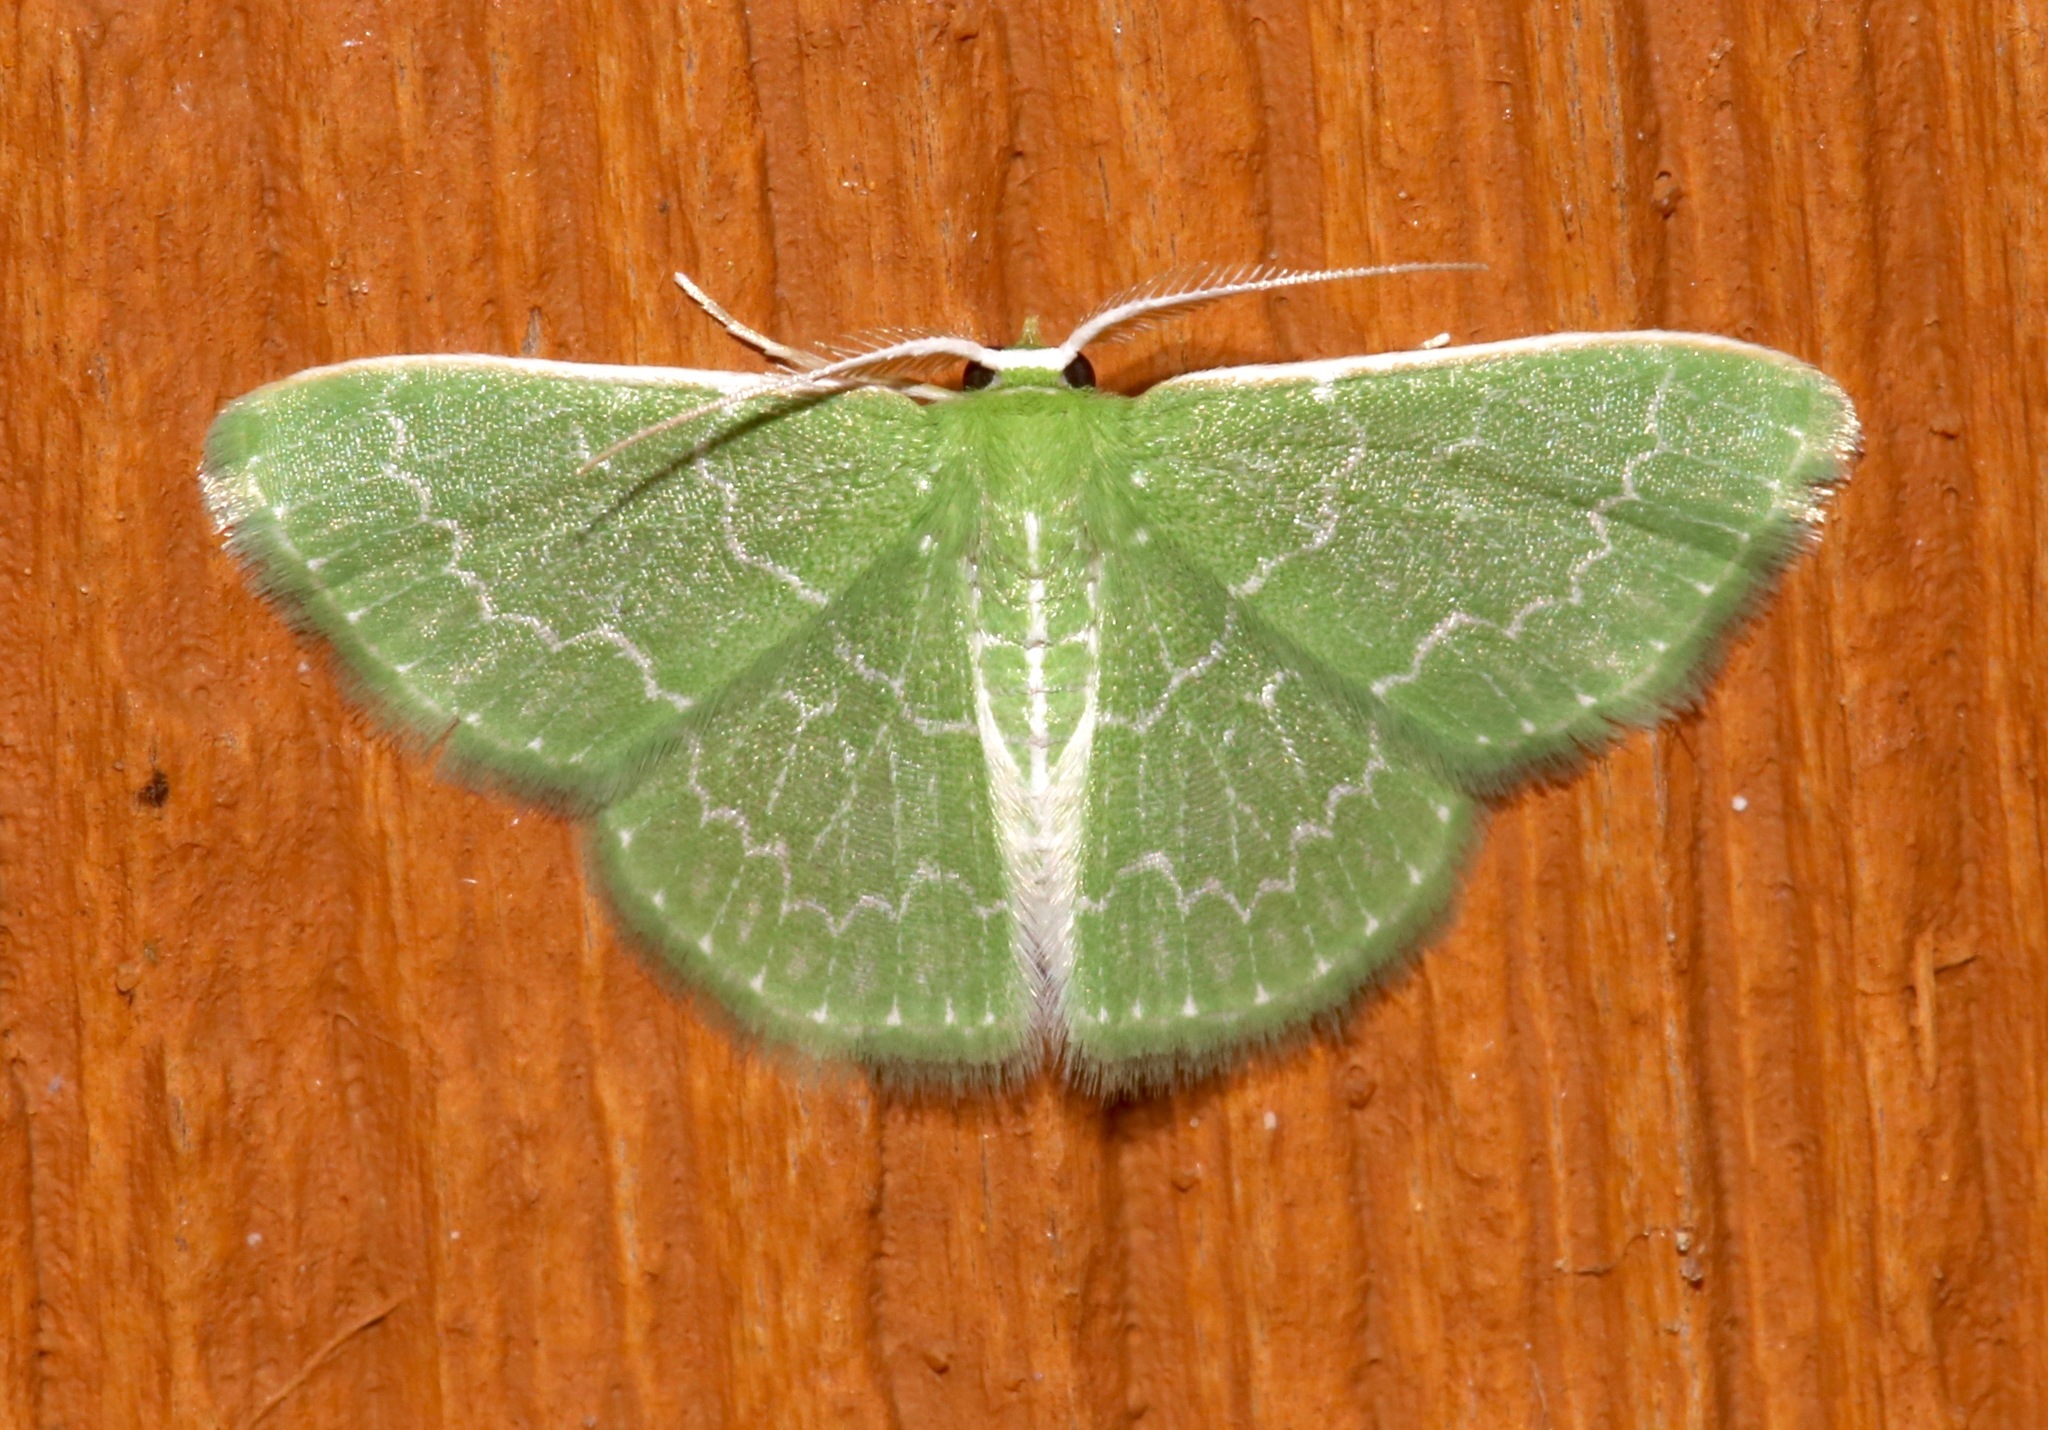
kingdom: Animalia
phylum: Arthropoda
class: Insecta
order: Lepidoptera
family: Geometridae
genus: Synchlora
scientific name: Synchlora frondaria
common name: Southern emerald
